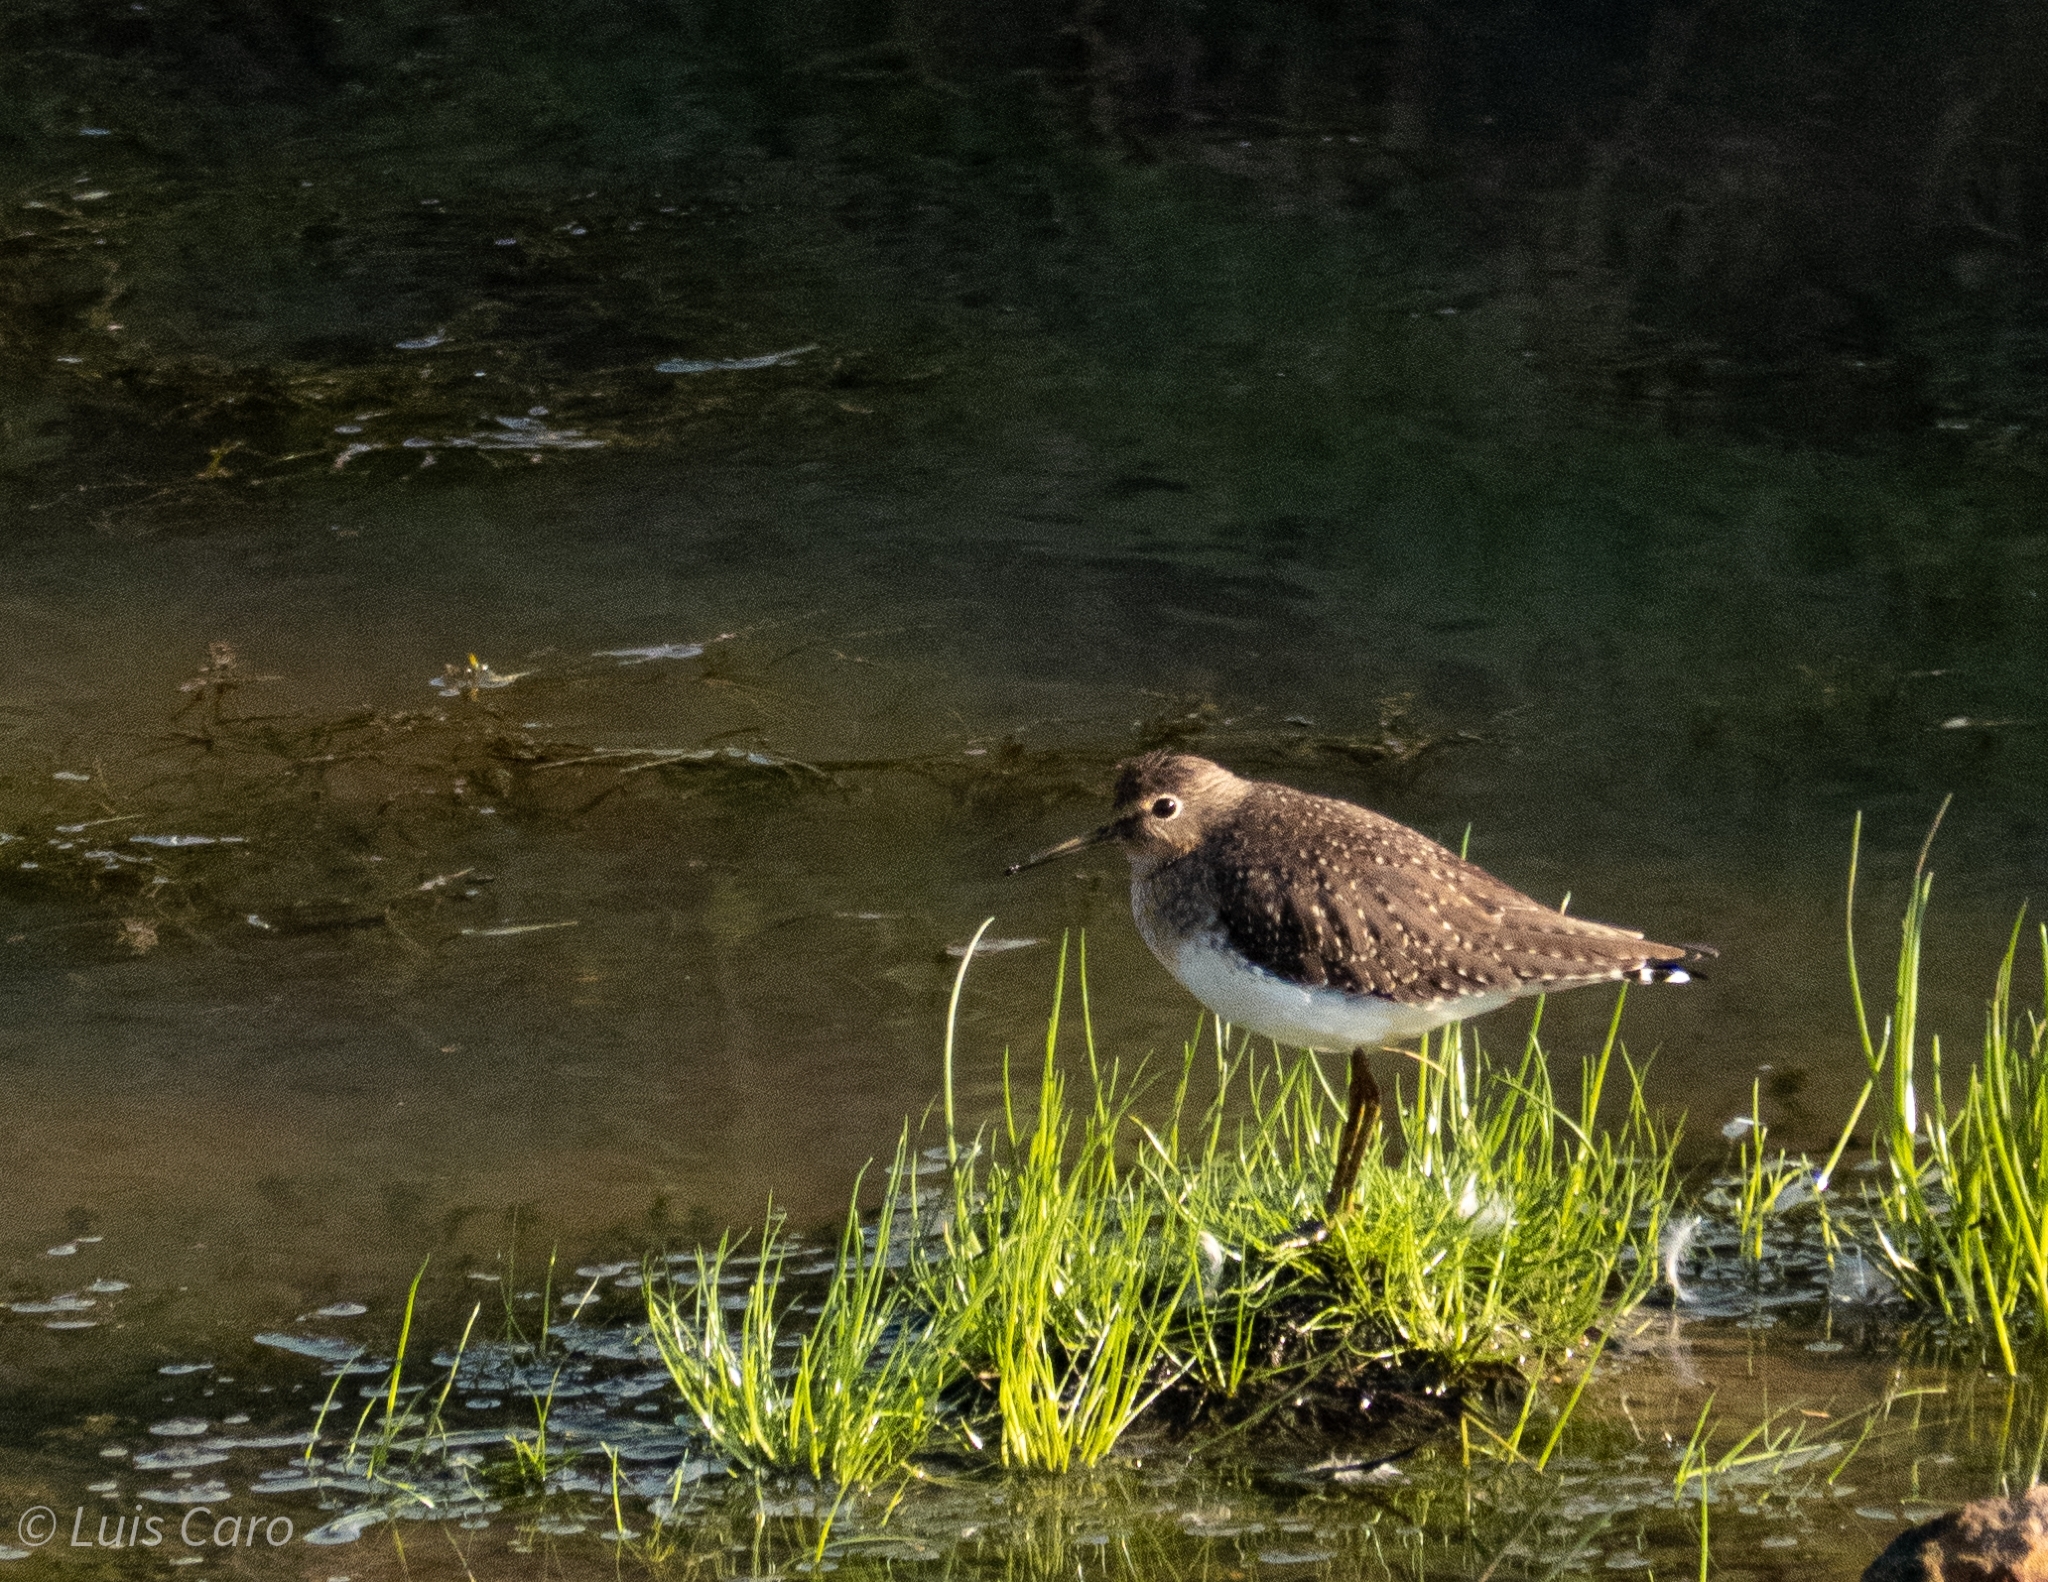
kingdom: Animalia
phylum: Chordata
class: Aves
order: Charadriiformes
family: Scolopacidae
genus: Tringa
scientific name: Tringa solitaria
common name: Solitary sandpiper
